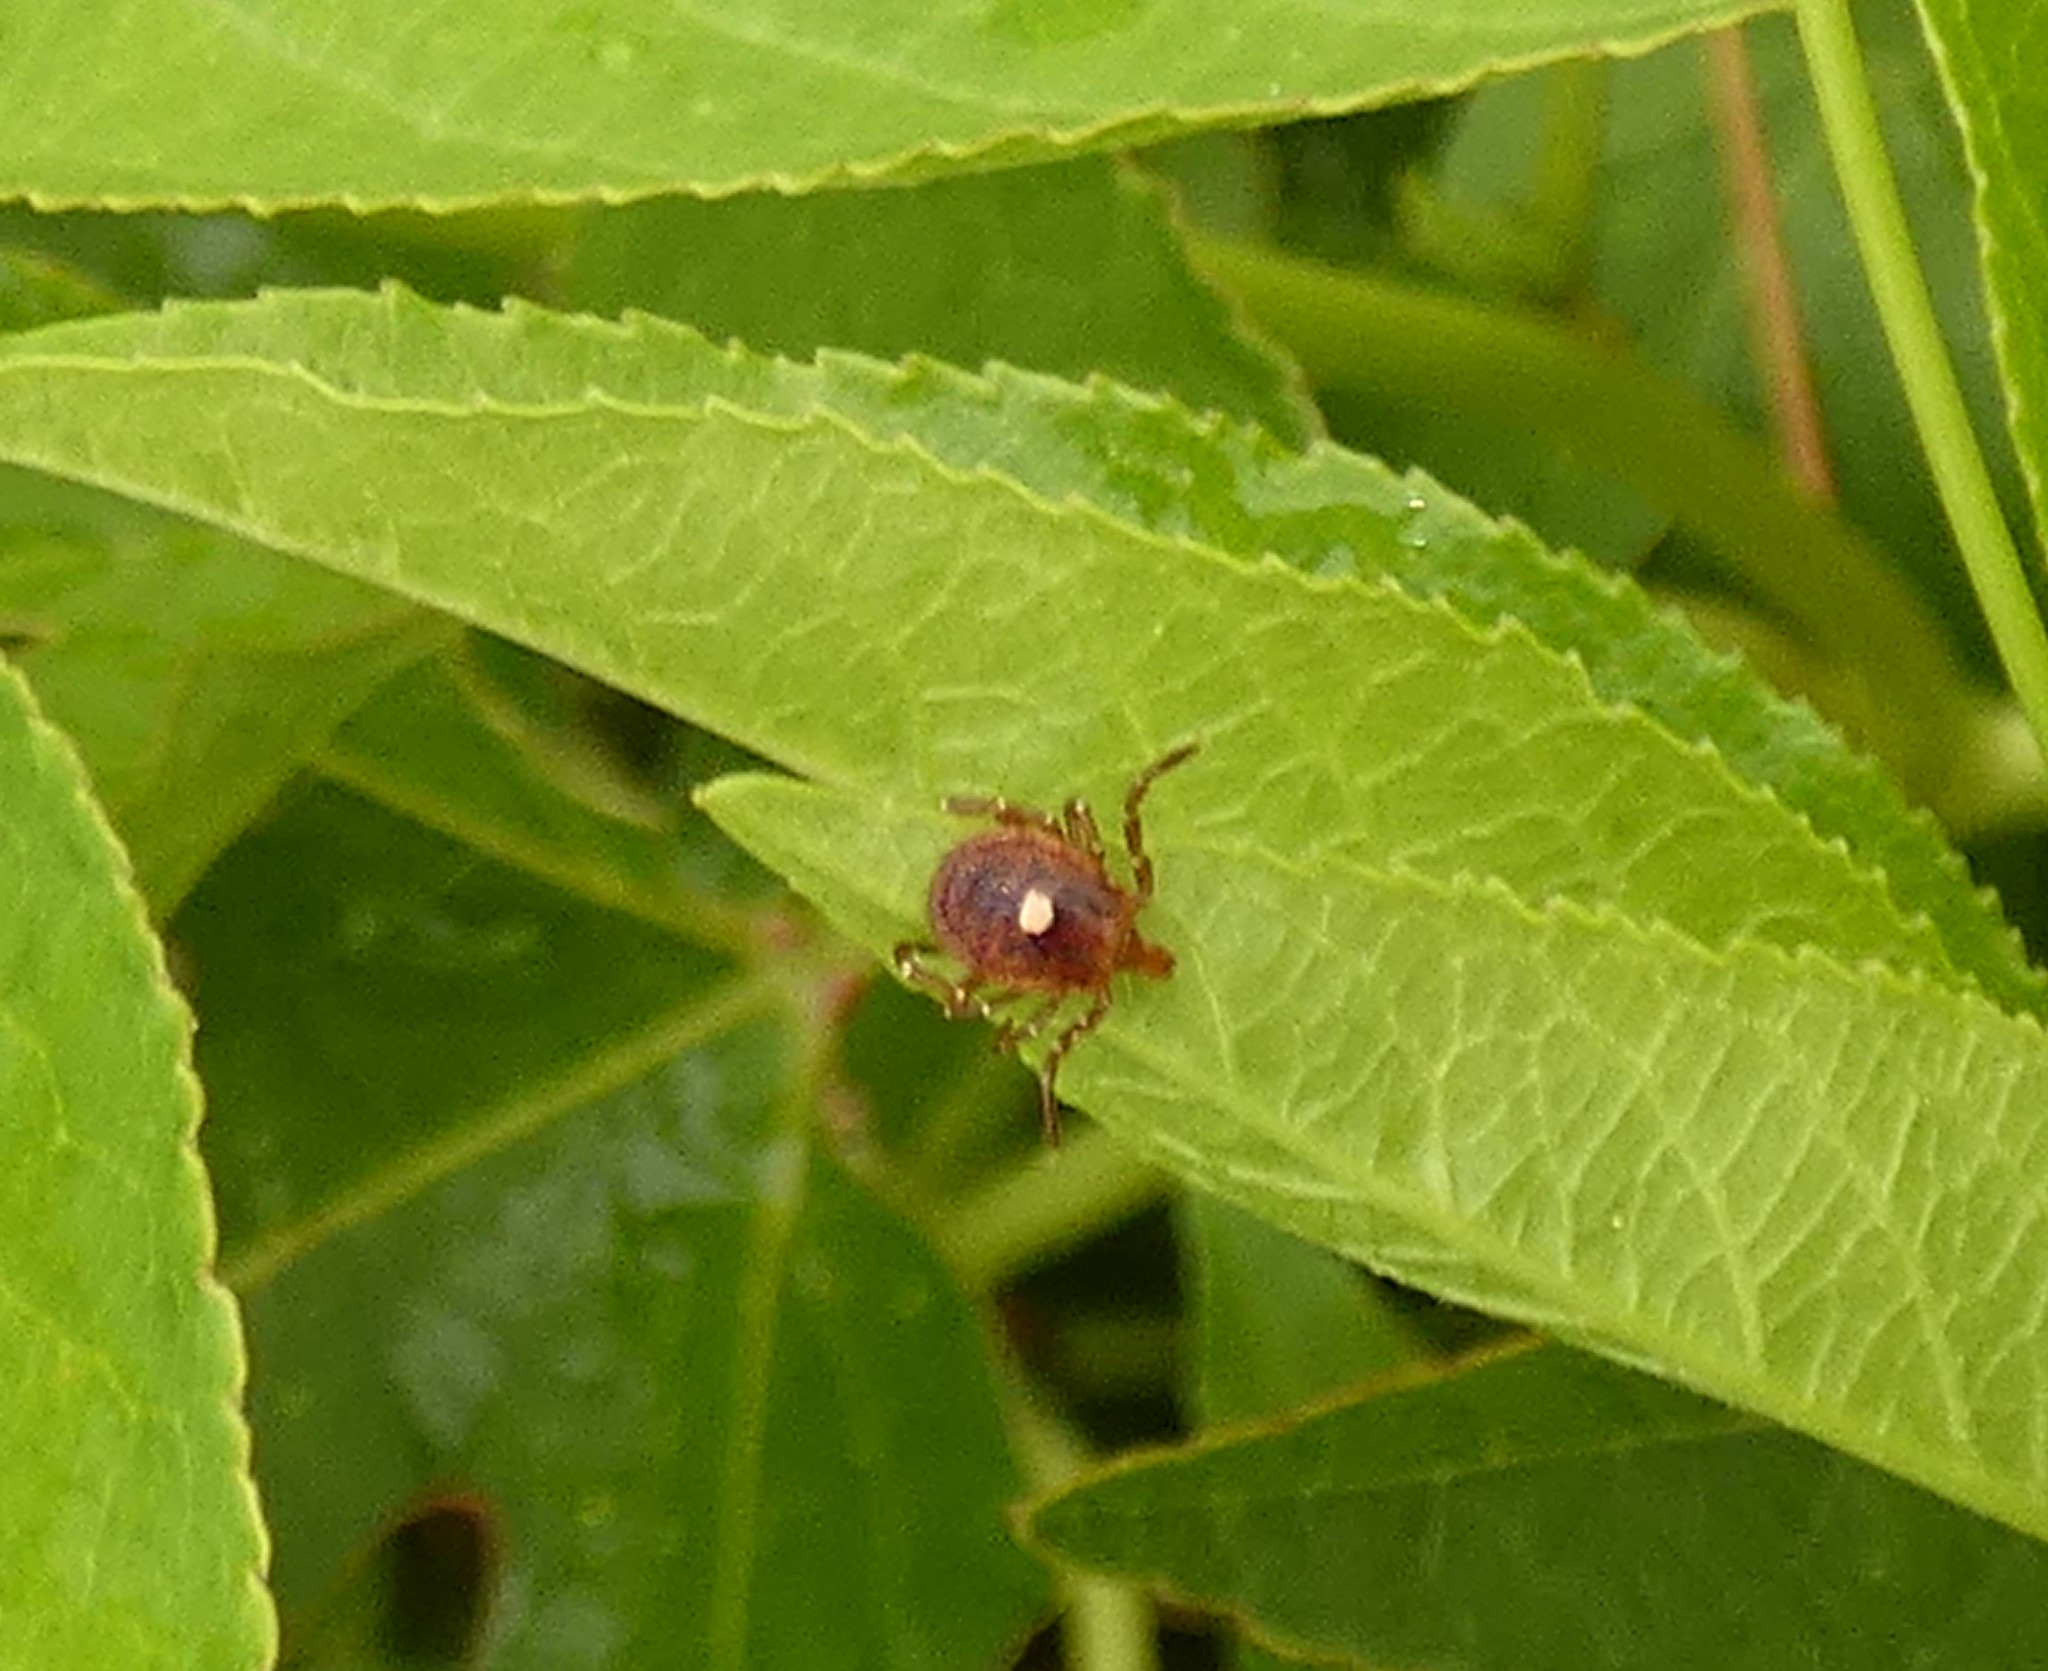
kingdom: Animalia
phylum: Arthropoda
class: Arachnida
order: Ixodida
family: Ixodidae
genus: Amblyomma
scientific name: Amblyomma americanum
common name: Lone star tick
